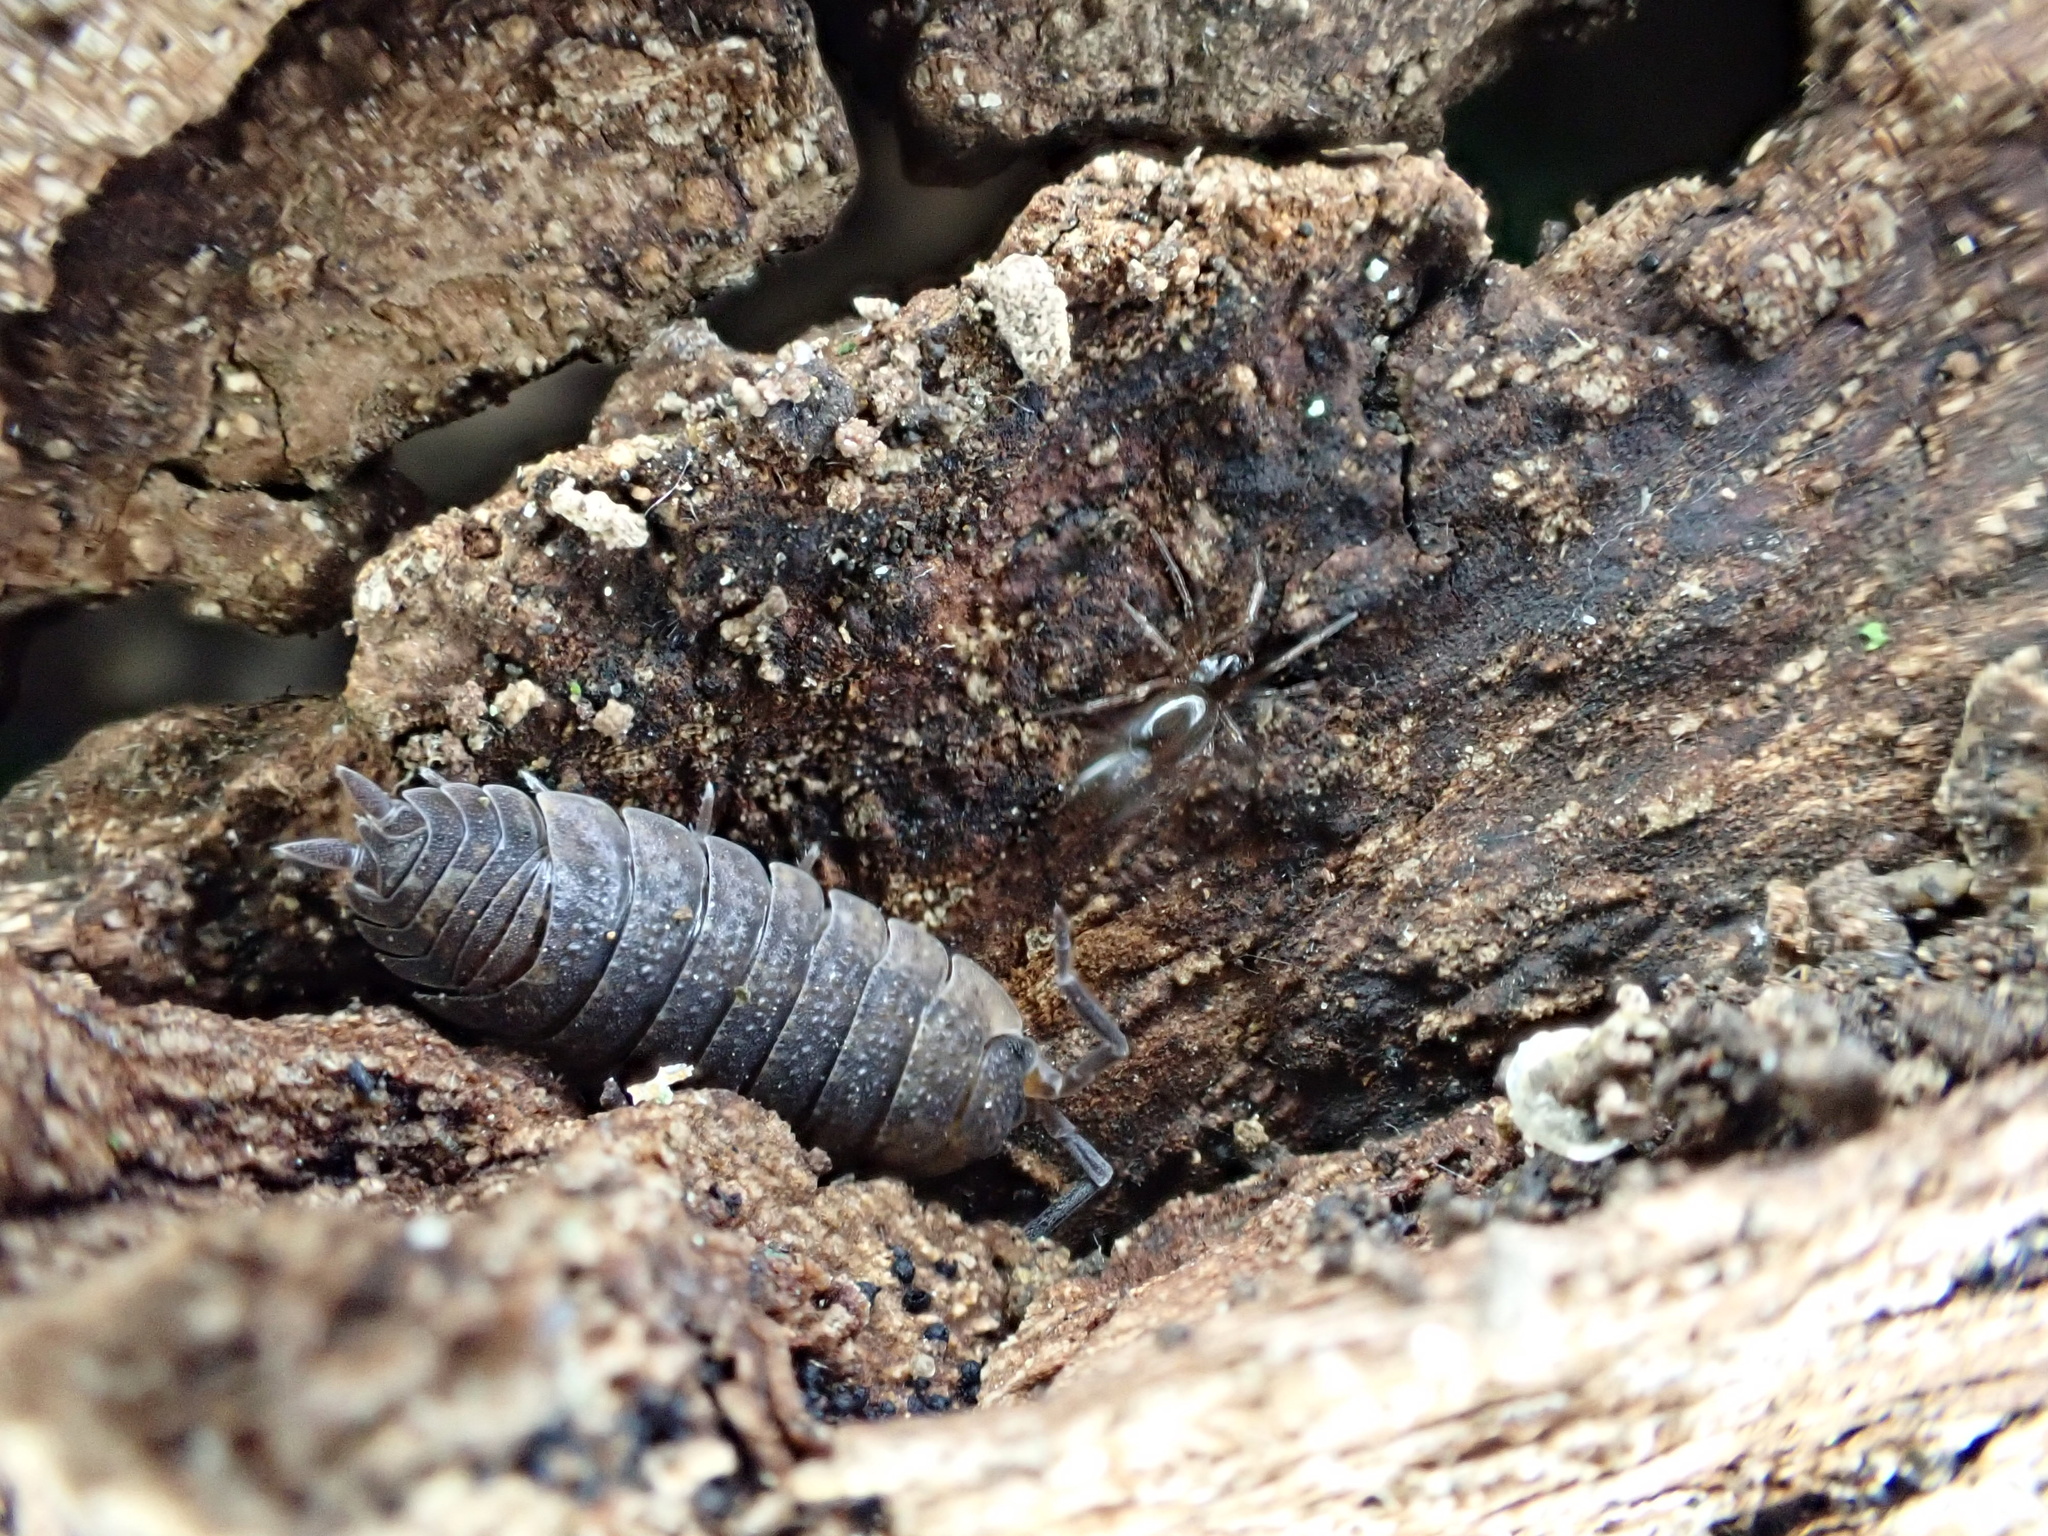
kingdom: Animalia
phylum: Arthropoda
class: Malacostraca
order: Isopoda
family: Porcellionidae
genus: Porcellio
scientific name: Porcellio scaber
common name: Common rough woodlouse
